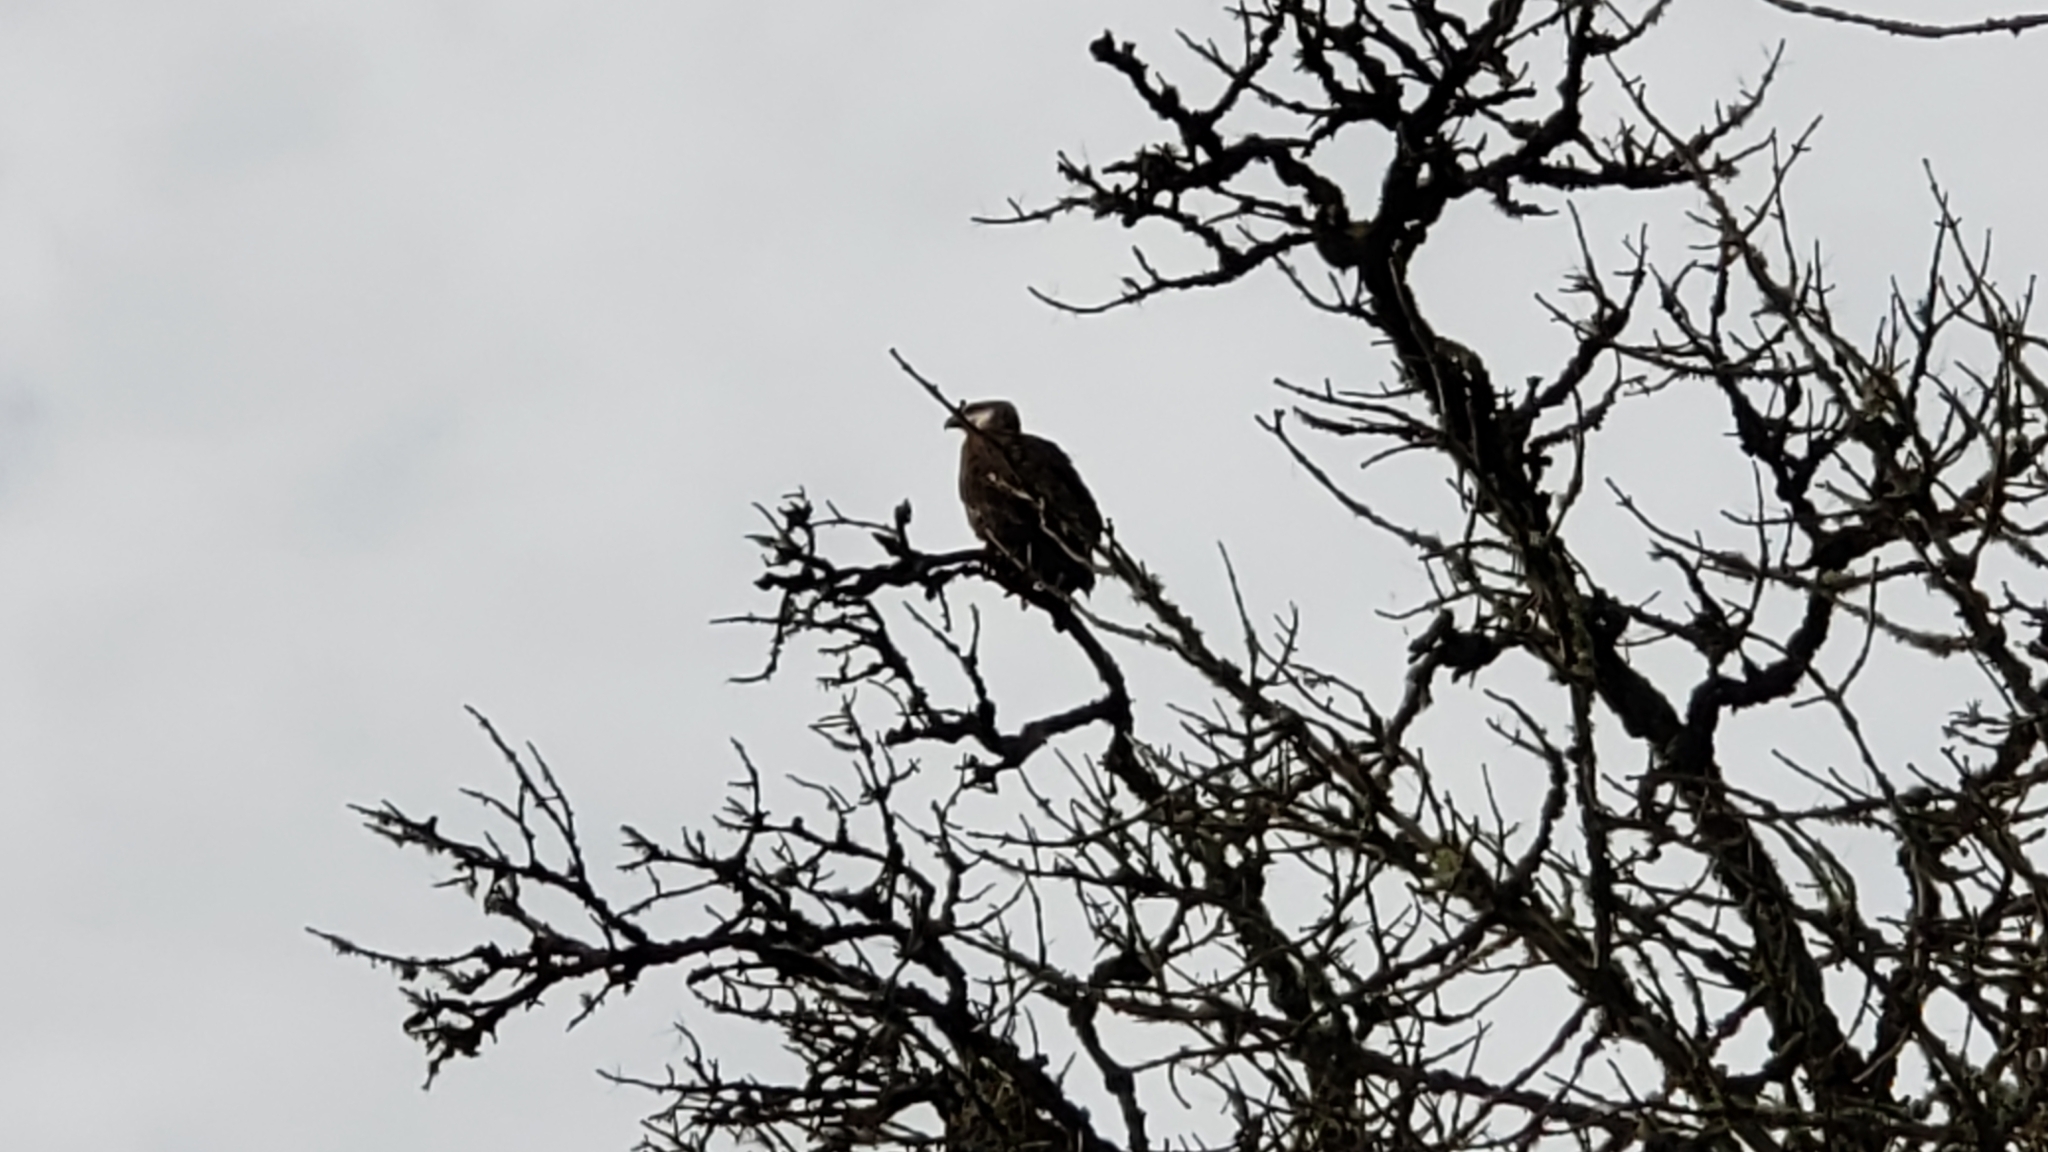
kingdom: Animalia
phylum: Chordata
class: Aves
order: Accipitriformes
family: Accipitridae
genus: Haliaeetus
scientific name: Haliaeetus leucocephalus
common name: Bald eagle
